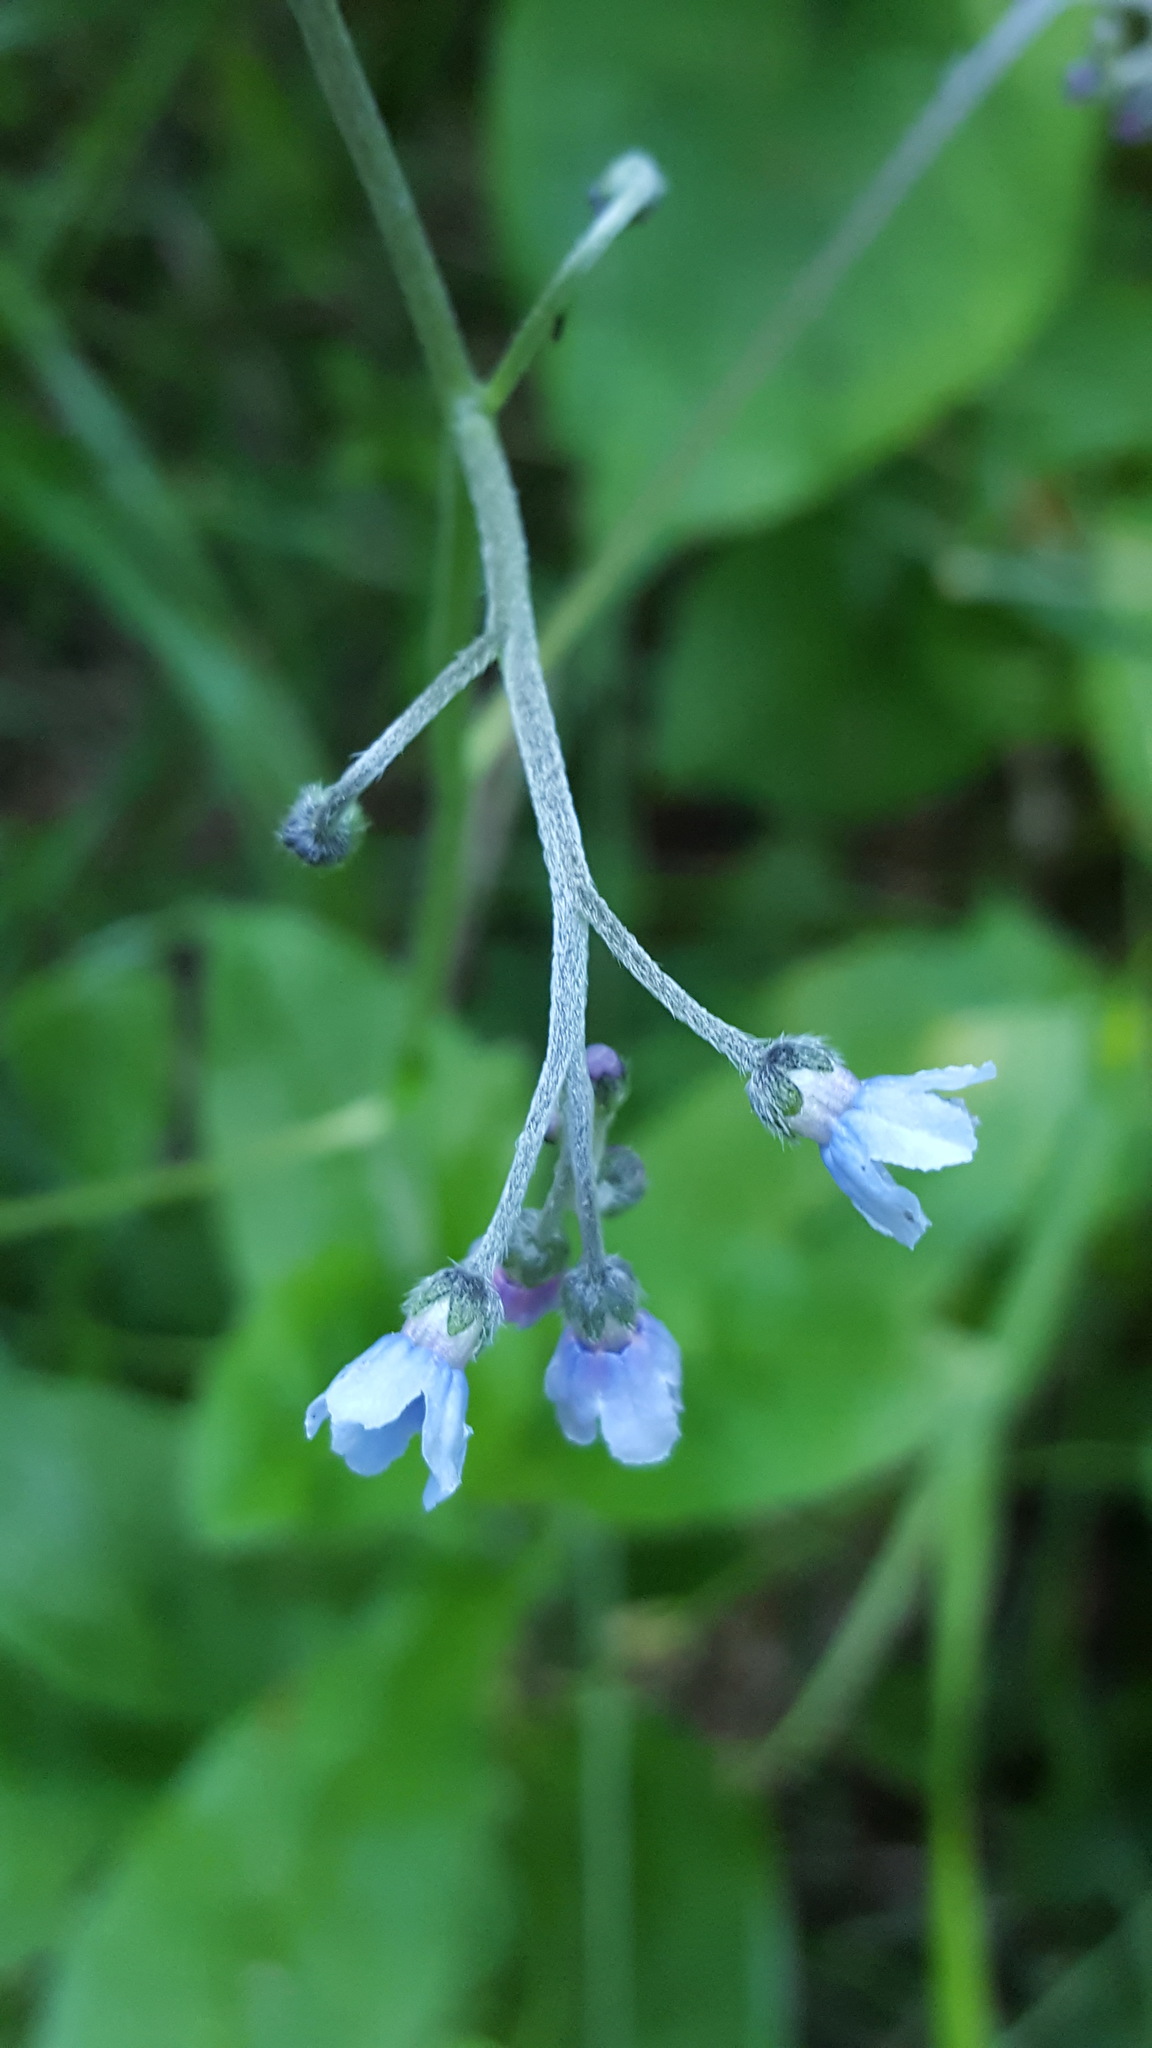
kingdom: Plantae
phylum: Tracheophyta
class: Magnoliopsida
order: Boraginales
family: Boraginaceae
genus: Andersonglossum
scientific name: Andersonglossum boreale
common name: Northern hound's-tongue
